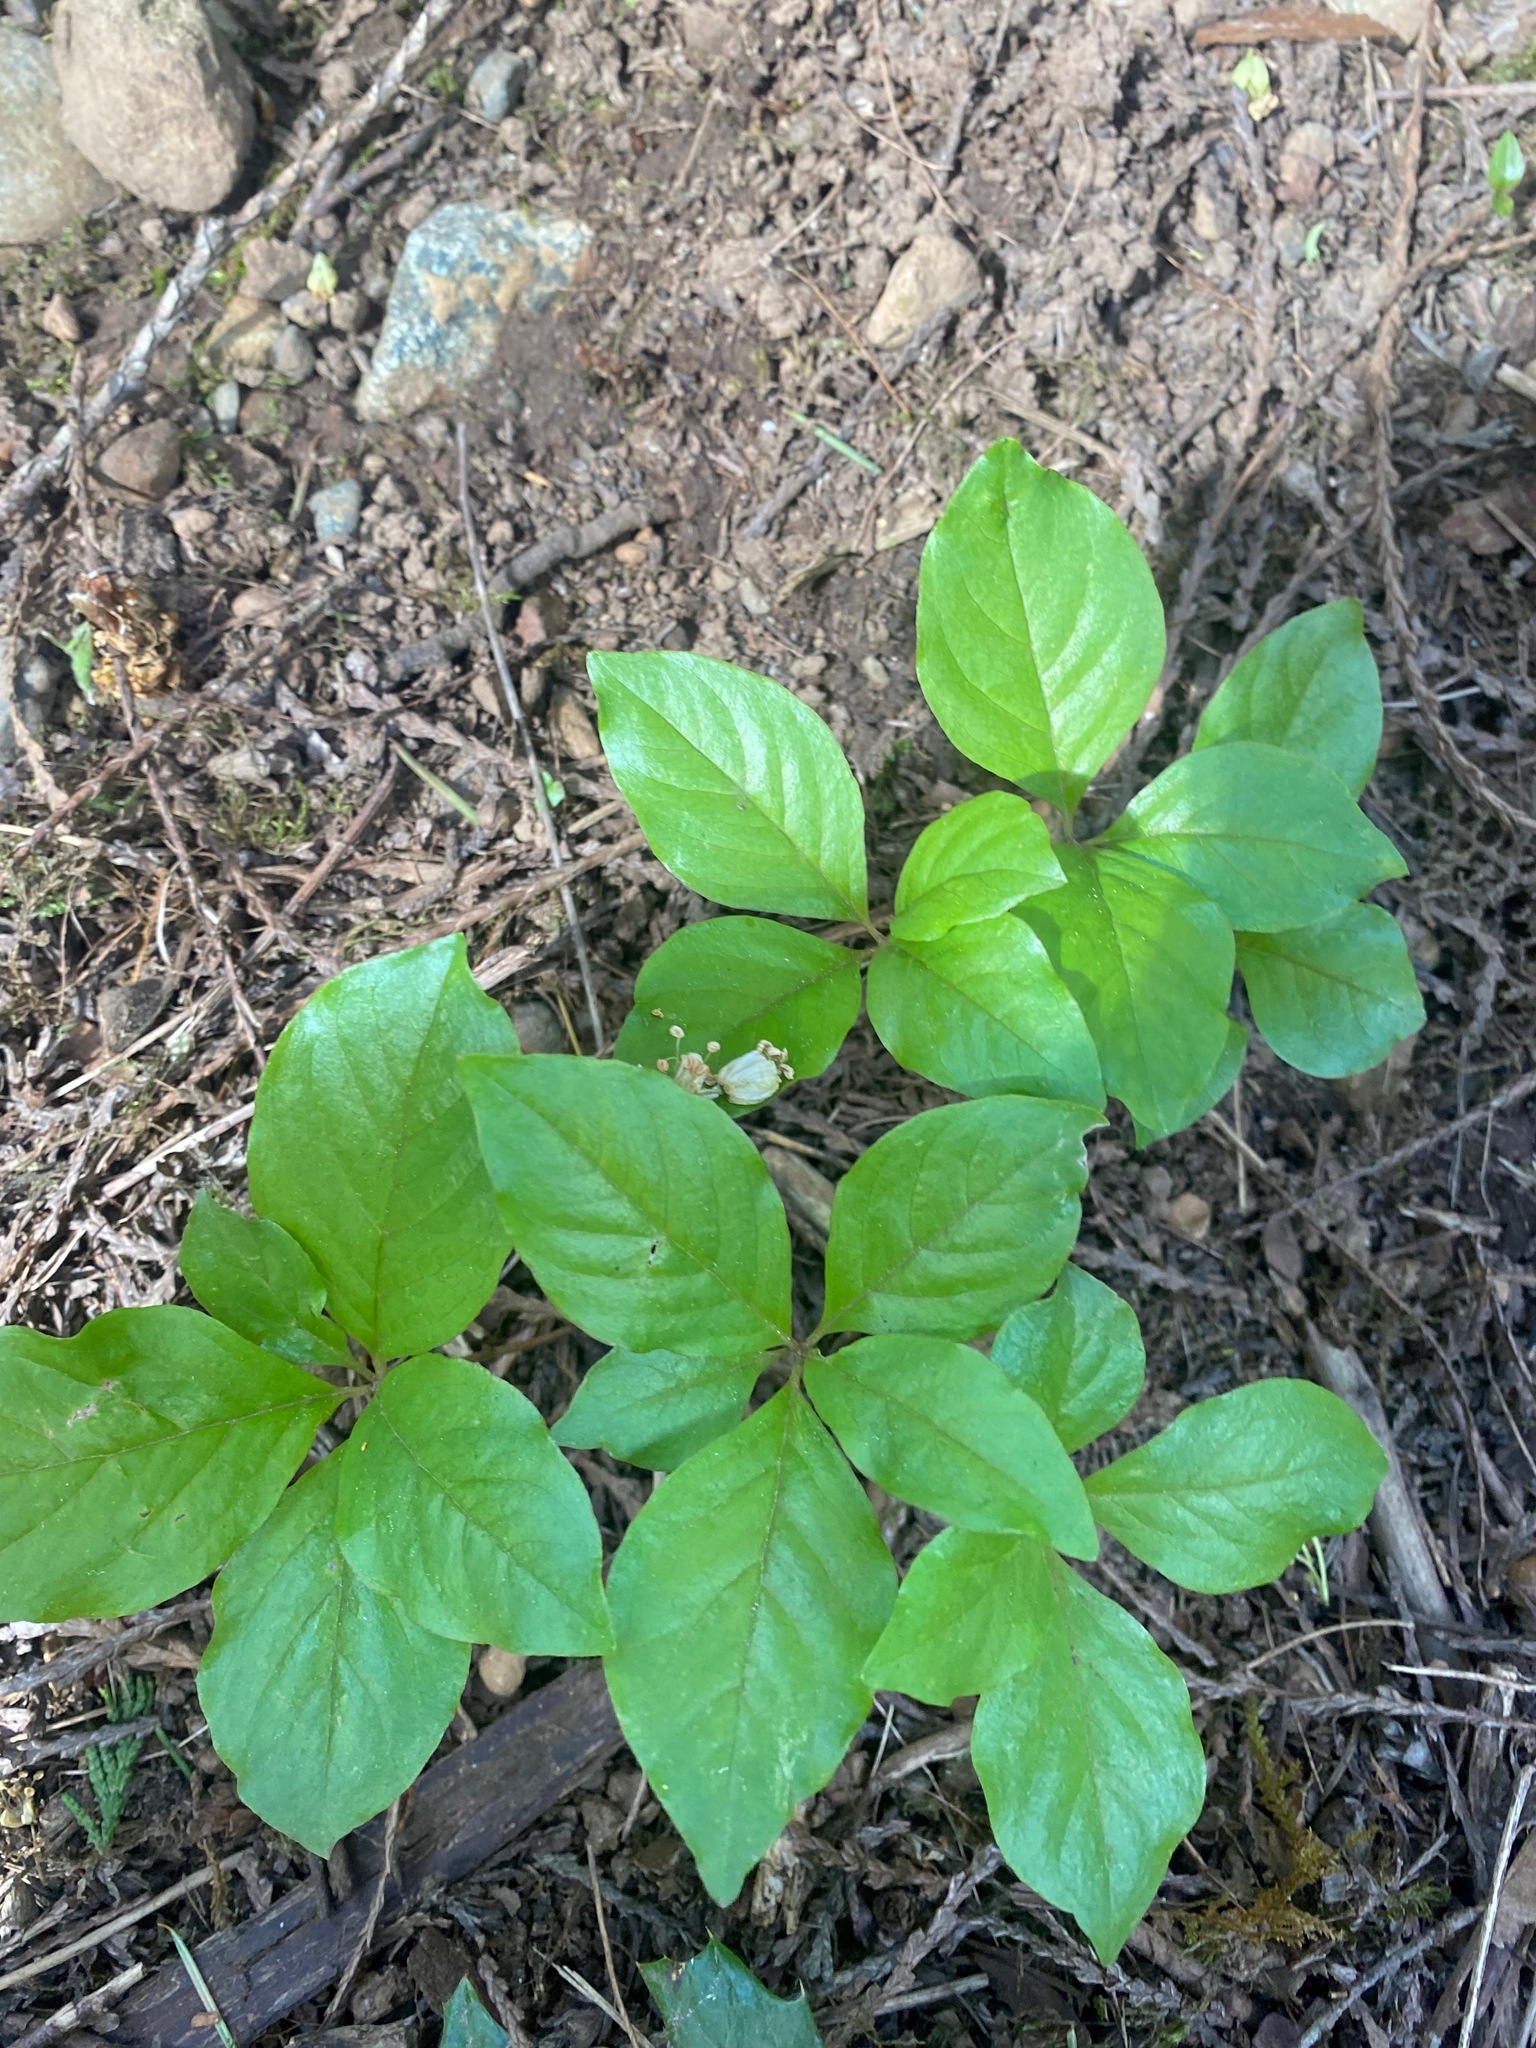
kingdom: Plantae
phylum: Tracheophyta
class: Magnoliopsida
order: Ericales
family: Primulaceae
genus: Lysimachia
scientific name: Lysimachia latifolia
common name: Pacific starflower
